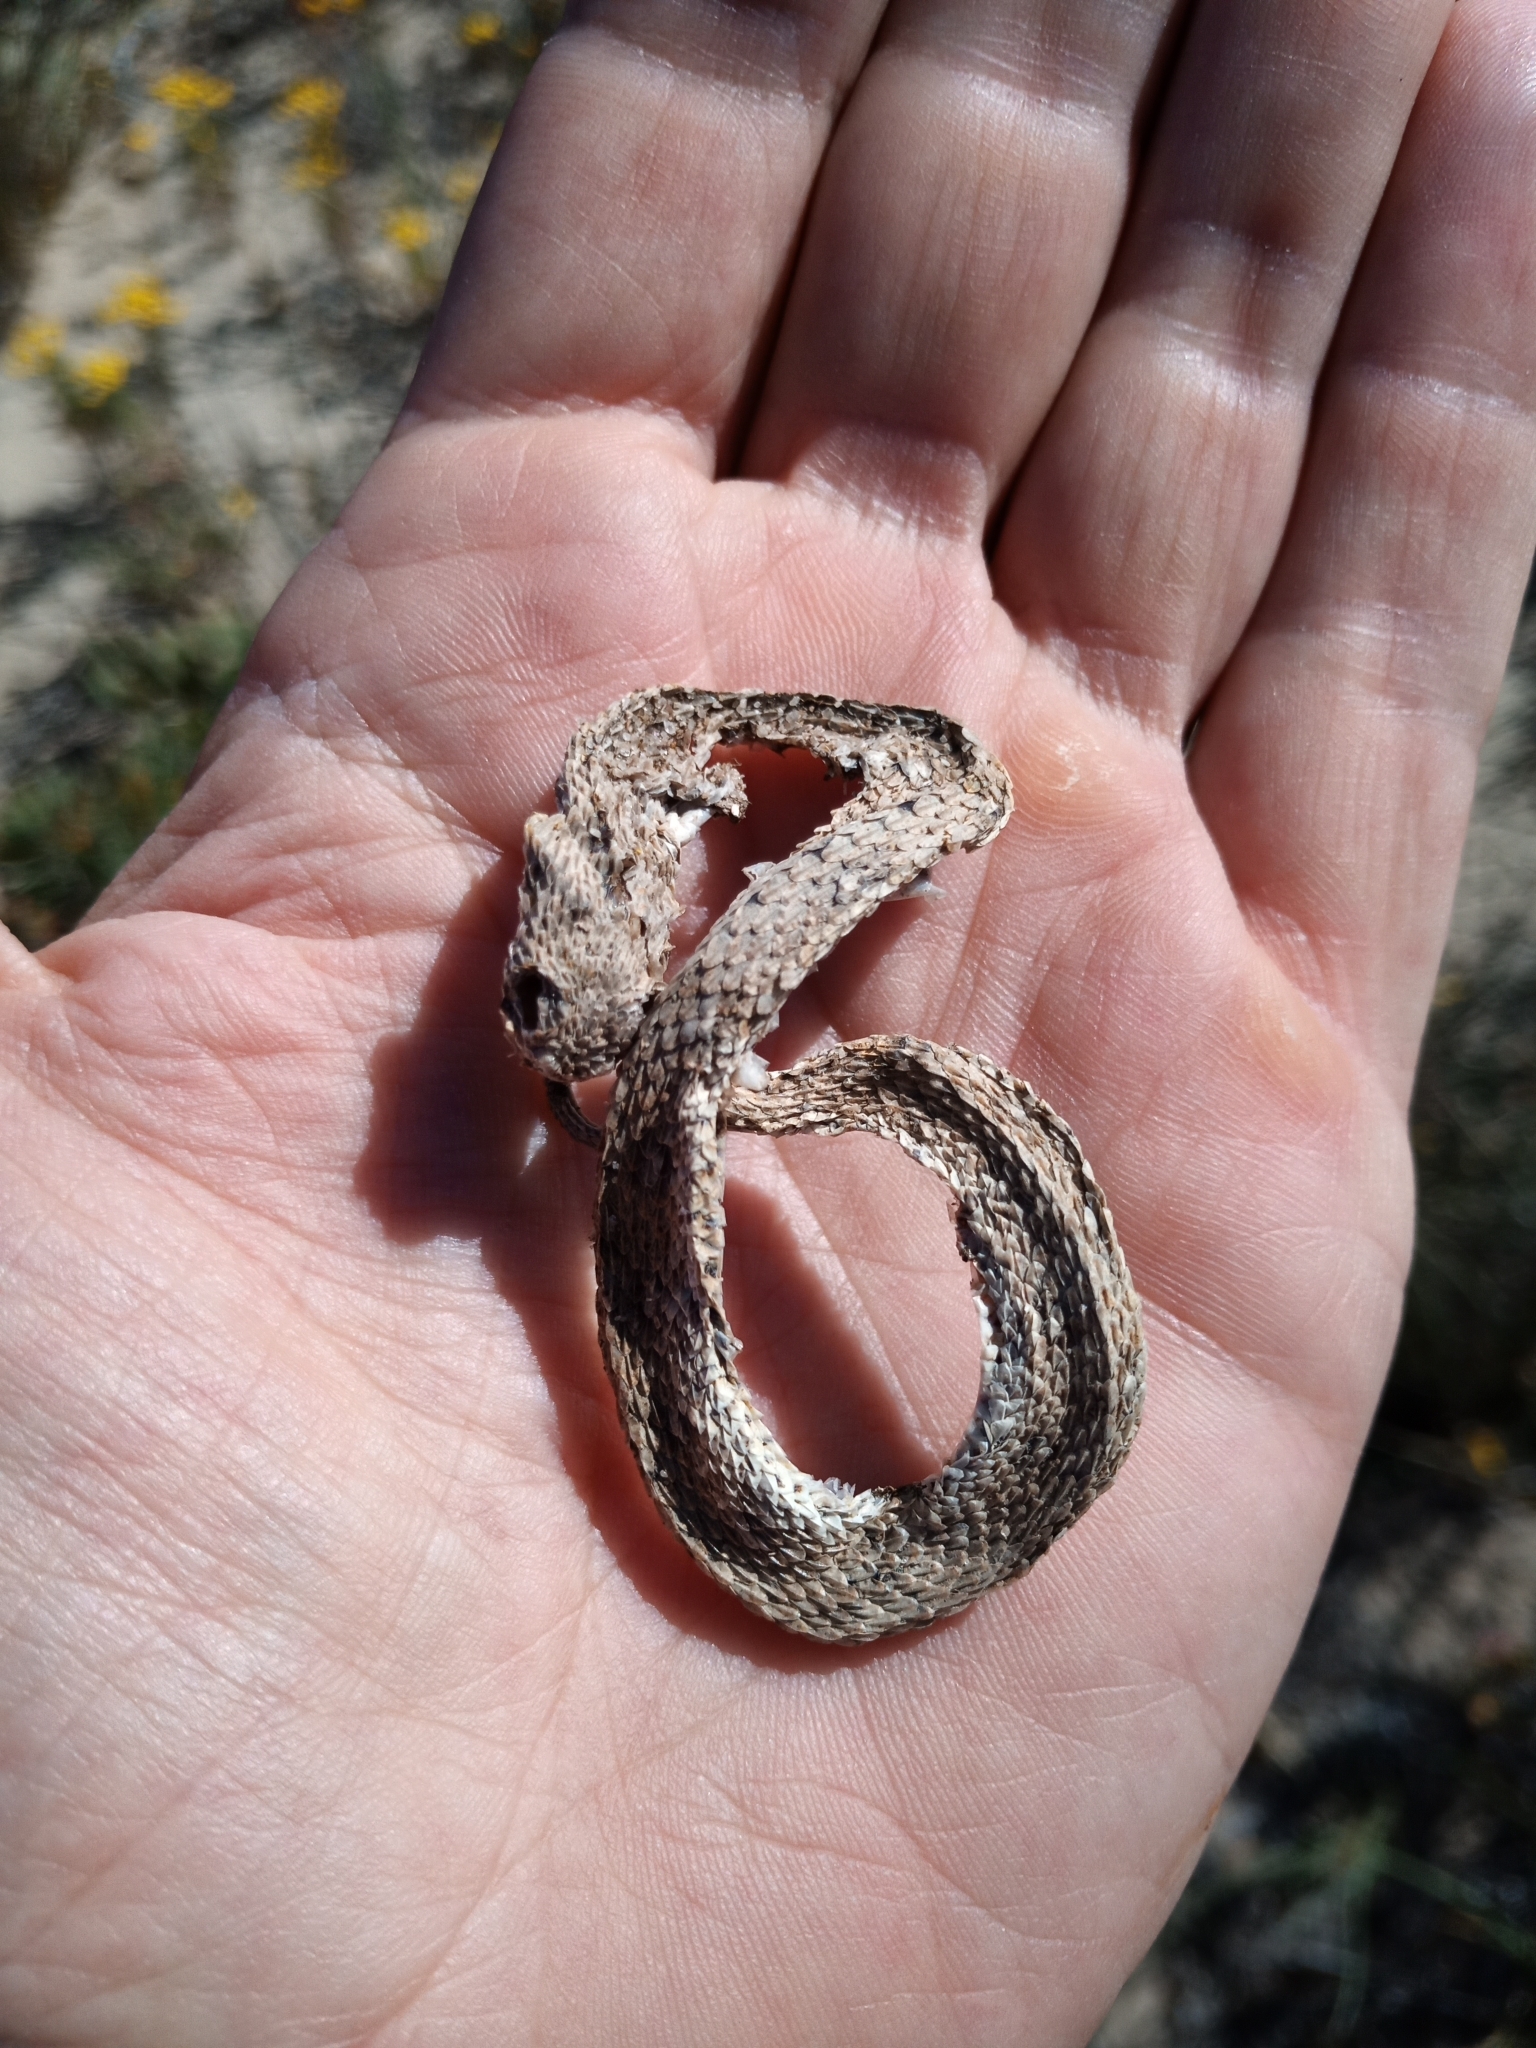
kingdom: Animalia
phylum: Chordata
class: Squamata
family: Viperidae
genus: Bitis
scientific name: Bitis schneideri
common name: Namaqua dwarf adder
